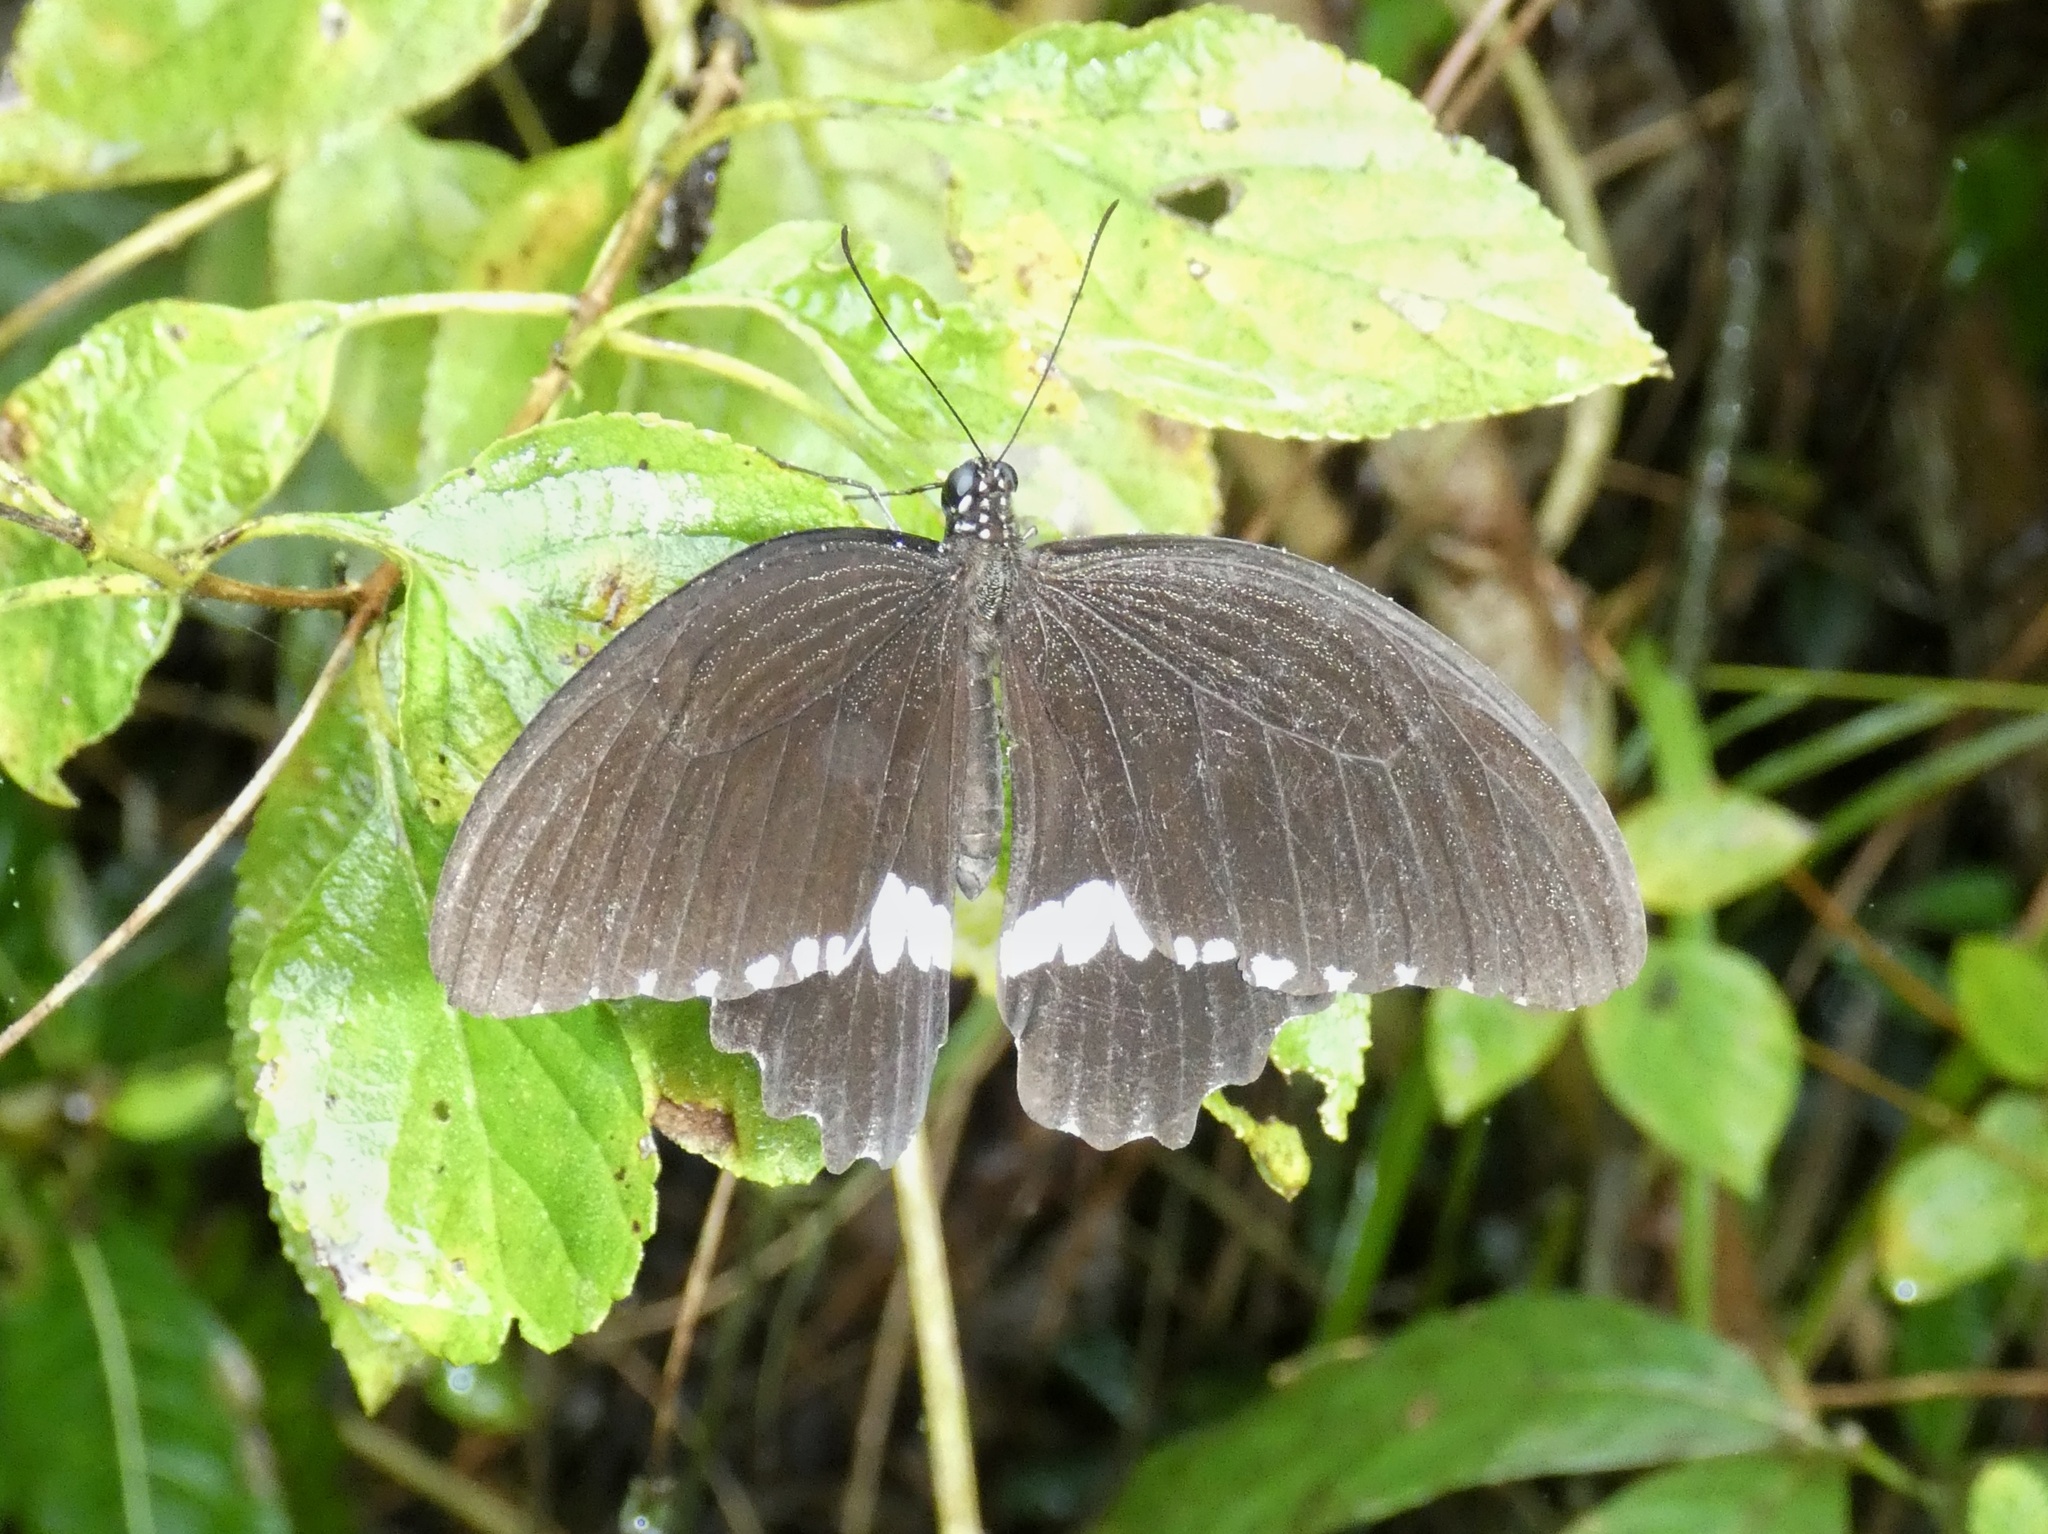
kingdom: Animalia
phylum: Arthropoda
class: Insecta
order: Lepidoptera
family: Papilionidae
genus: Papilio
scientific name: Papilio polytes
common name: Common mormon
